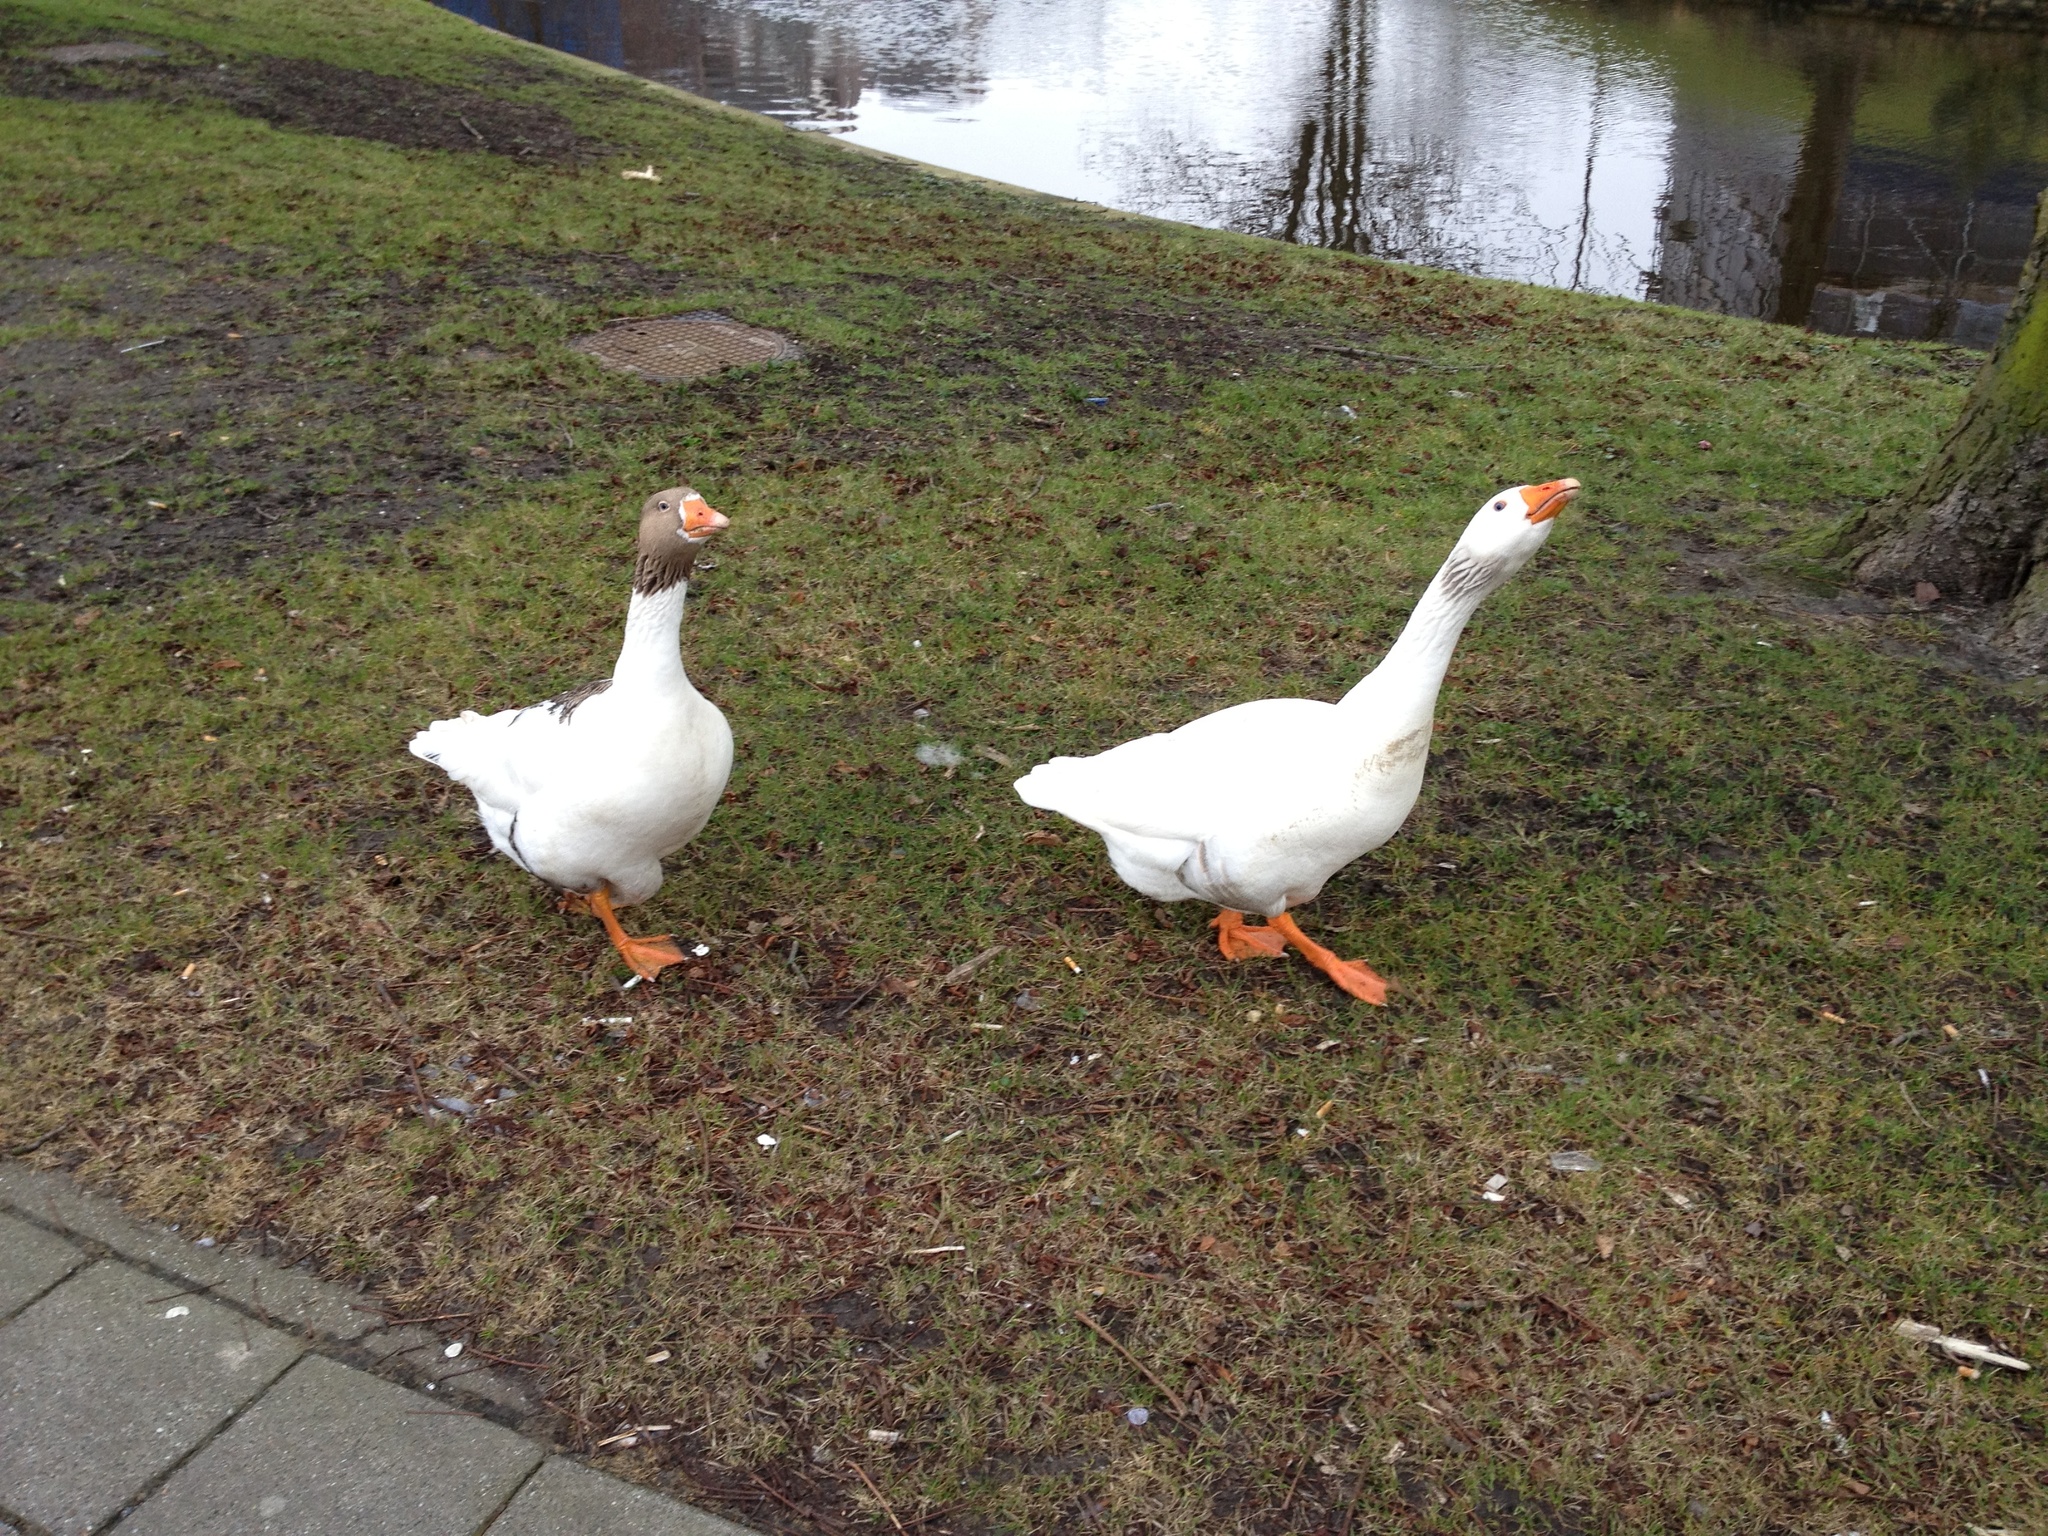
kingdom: Animalia
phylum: Chordata
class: Aves
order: Anseriformes
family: Anatidae
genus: Anser
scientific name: Anser anser
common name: Greylag goose
